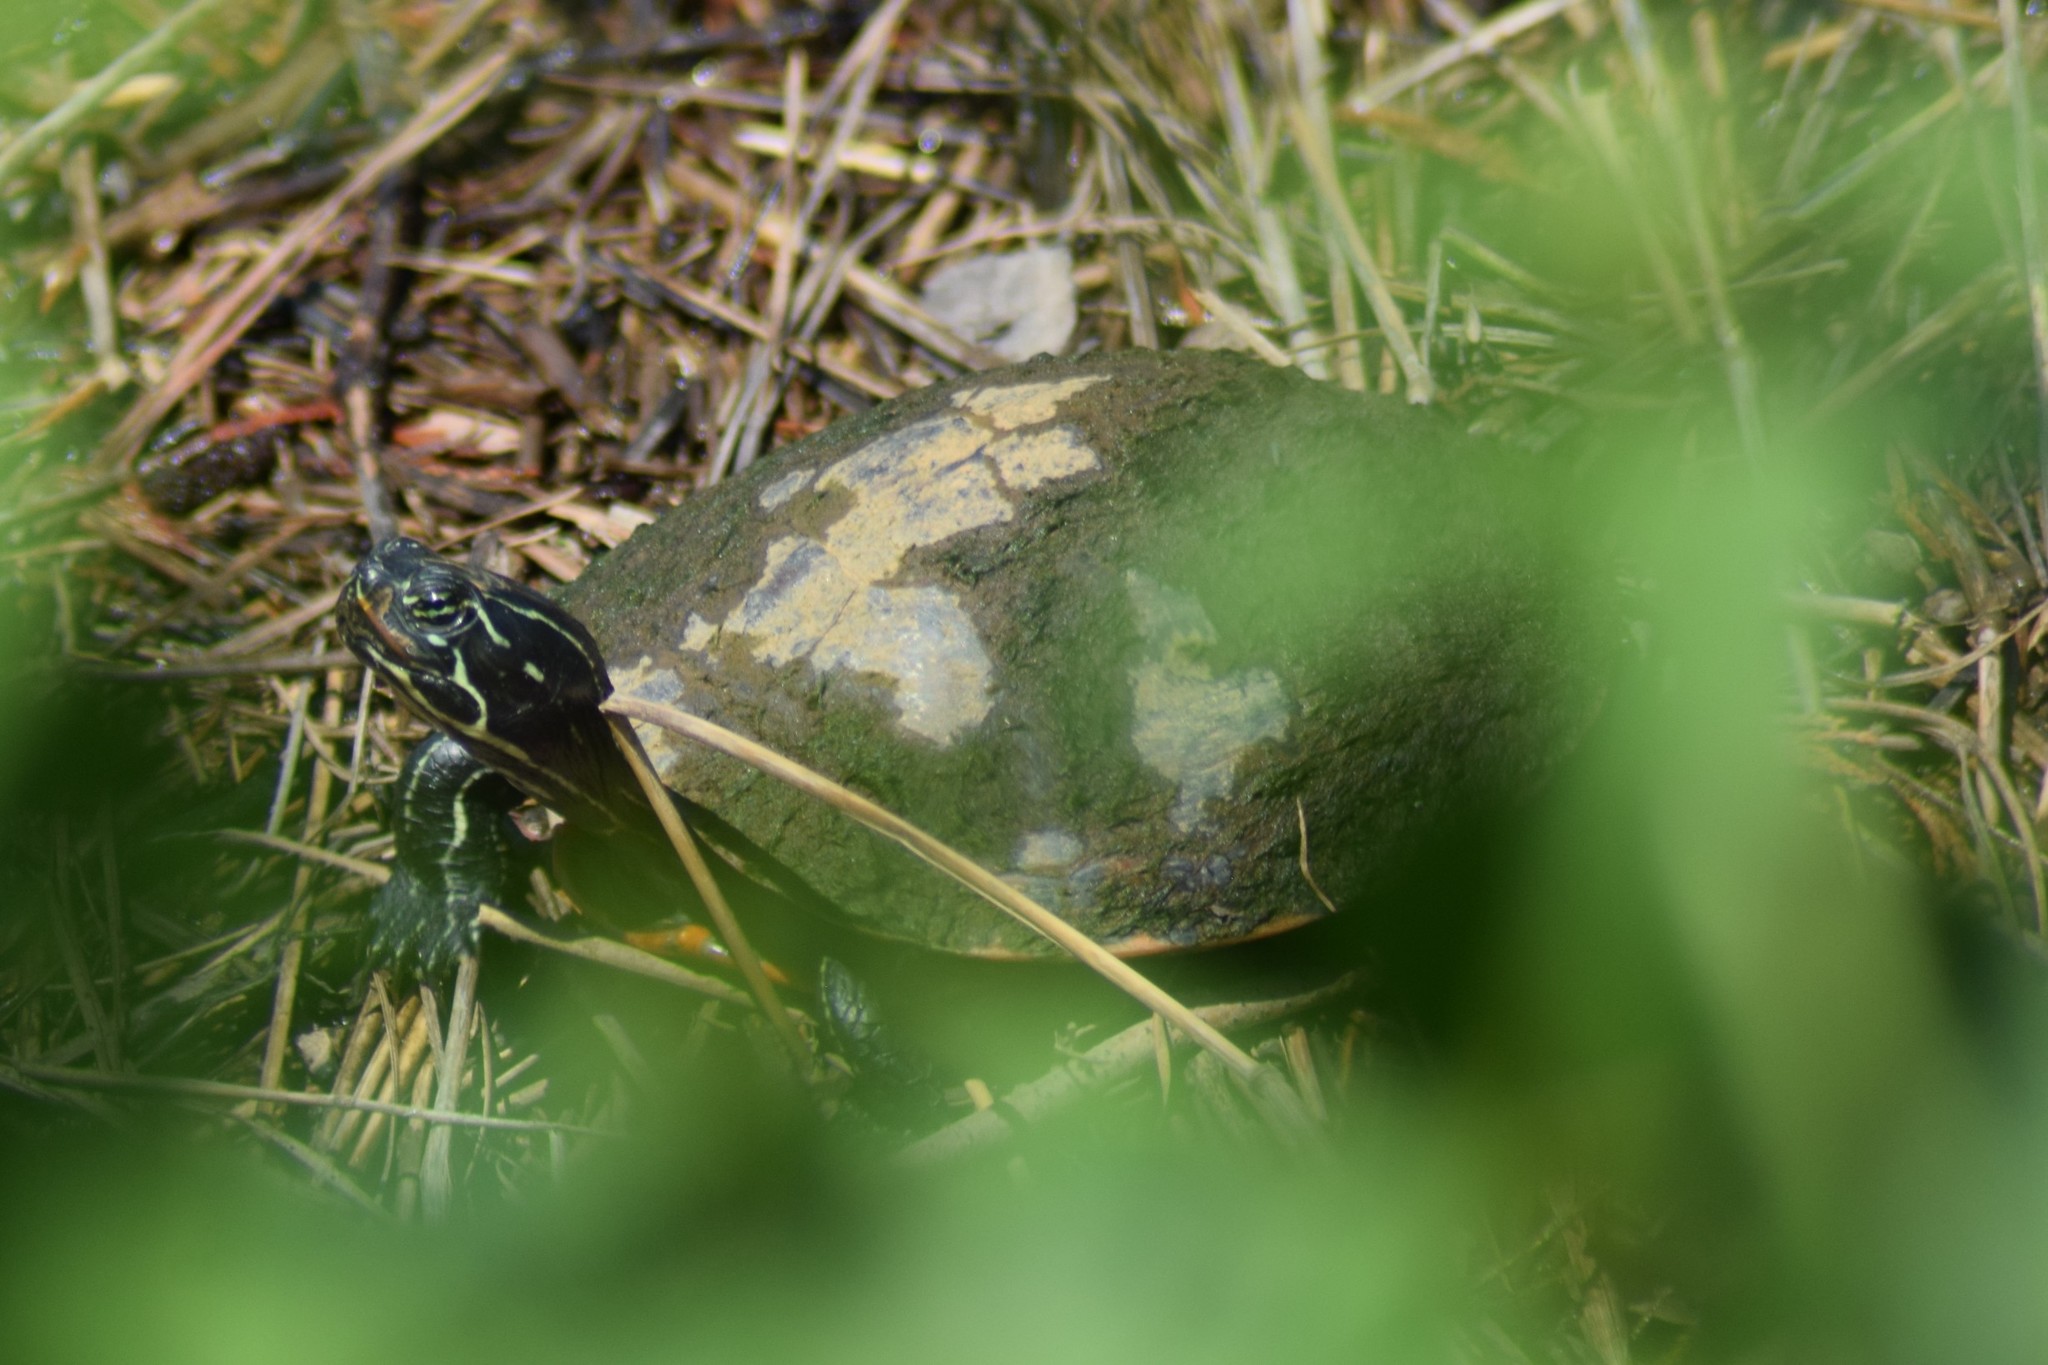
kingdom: Animalia
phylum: Chordata
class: Testudines
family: Emydidae
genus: Pseudemys
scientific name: Pseudemys rubriventris
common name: American red-bellied turtle
